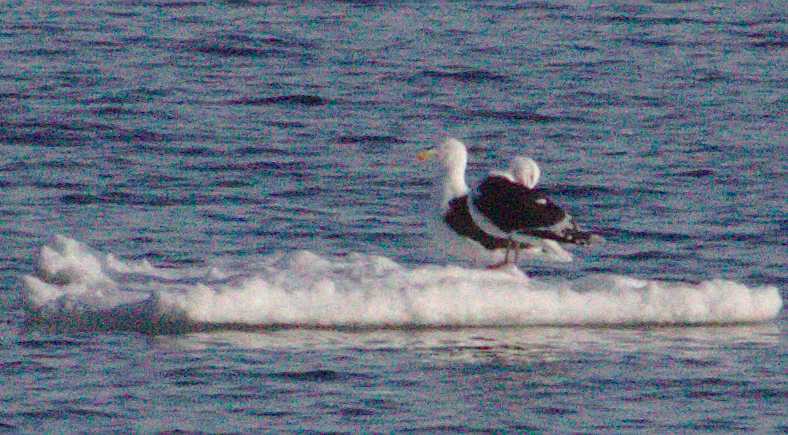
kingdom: Animalia
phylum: Chordata
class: Aves
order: Charadriiformes
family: Laridae
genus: Larus
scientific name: Larus marinus
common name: Great black-backed gull
